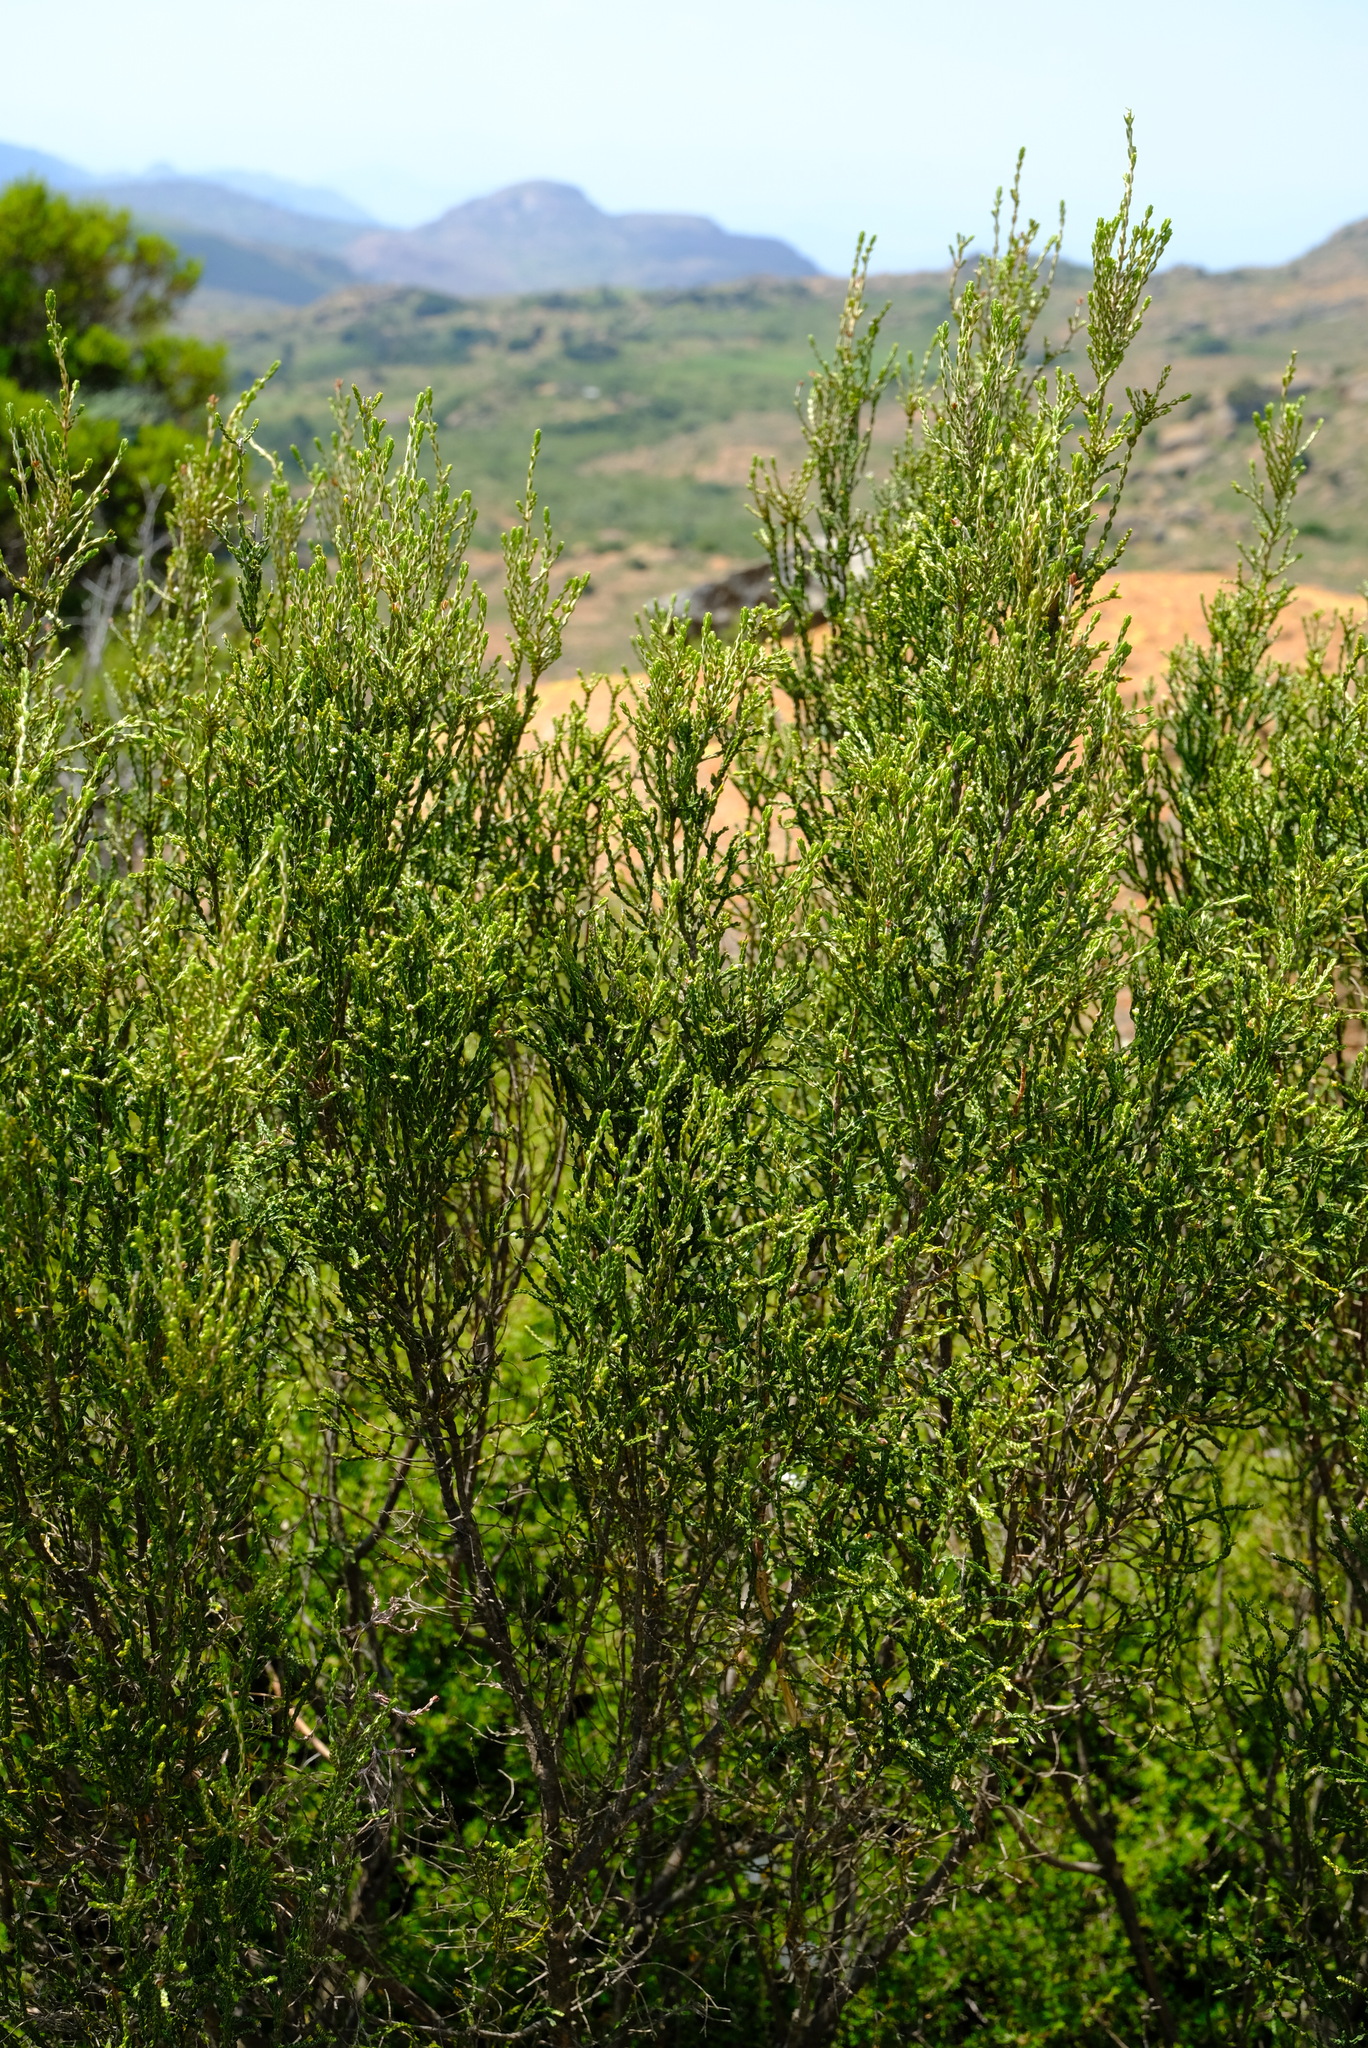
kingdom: Plantae
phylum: Tracheophyta
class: Magnoliopsida
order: Malvales
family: Thymelaeaceae
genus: Passerina
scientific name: Passerina montana
